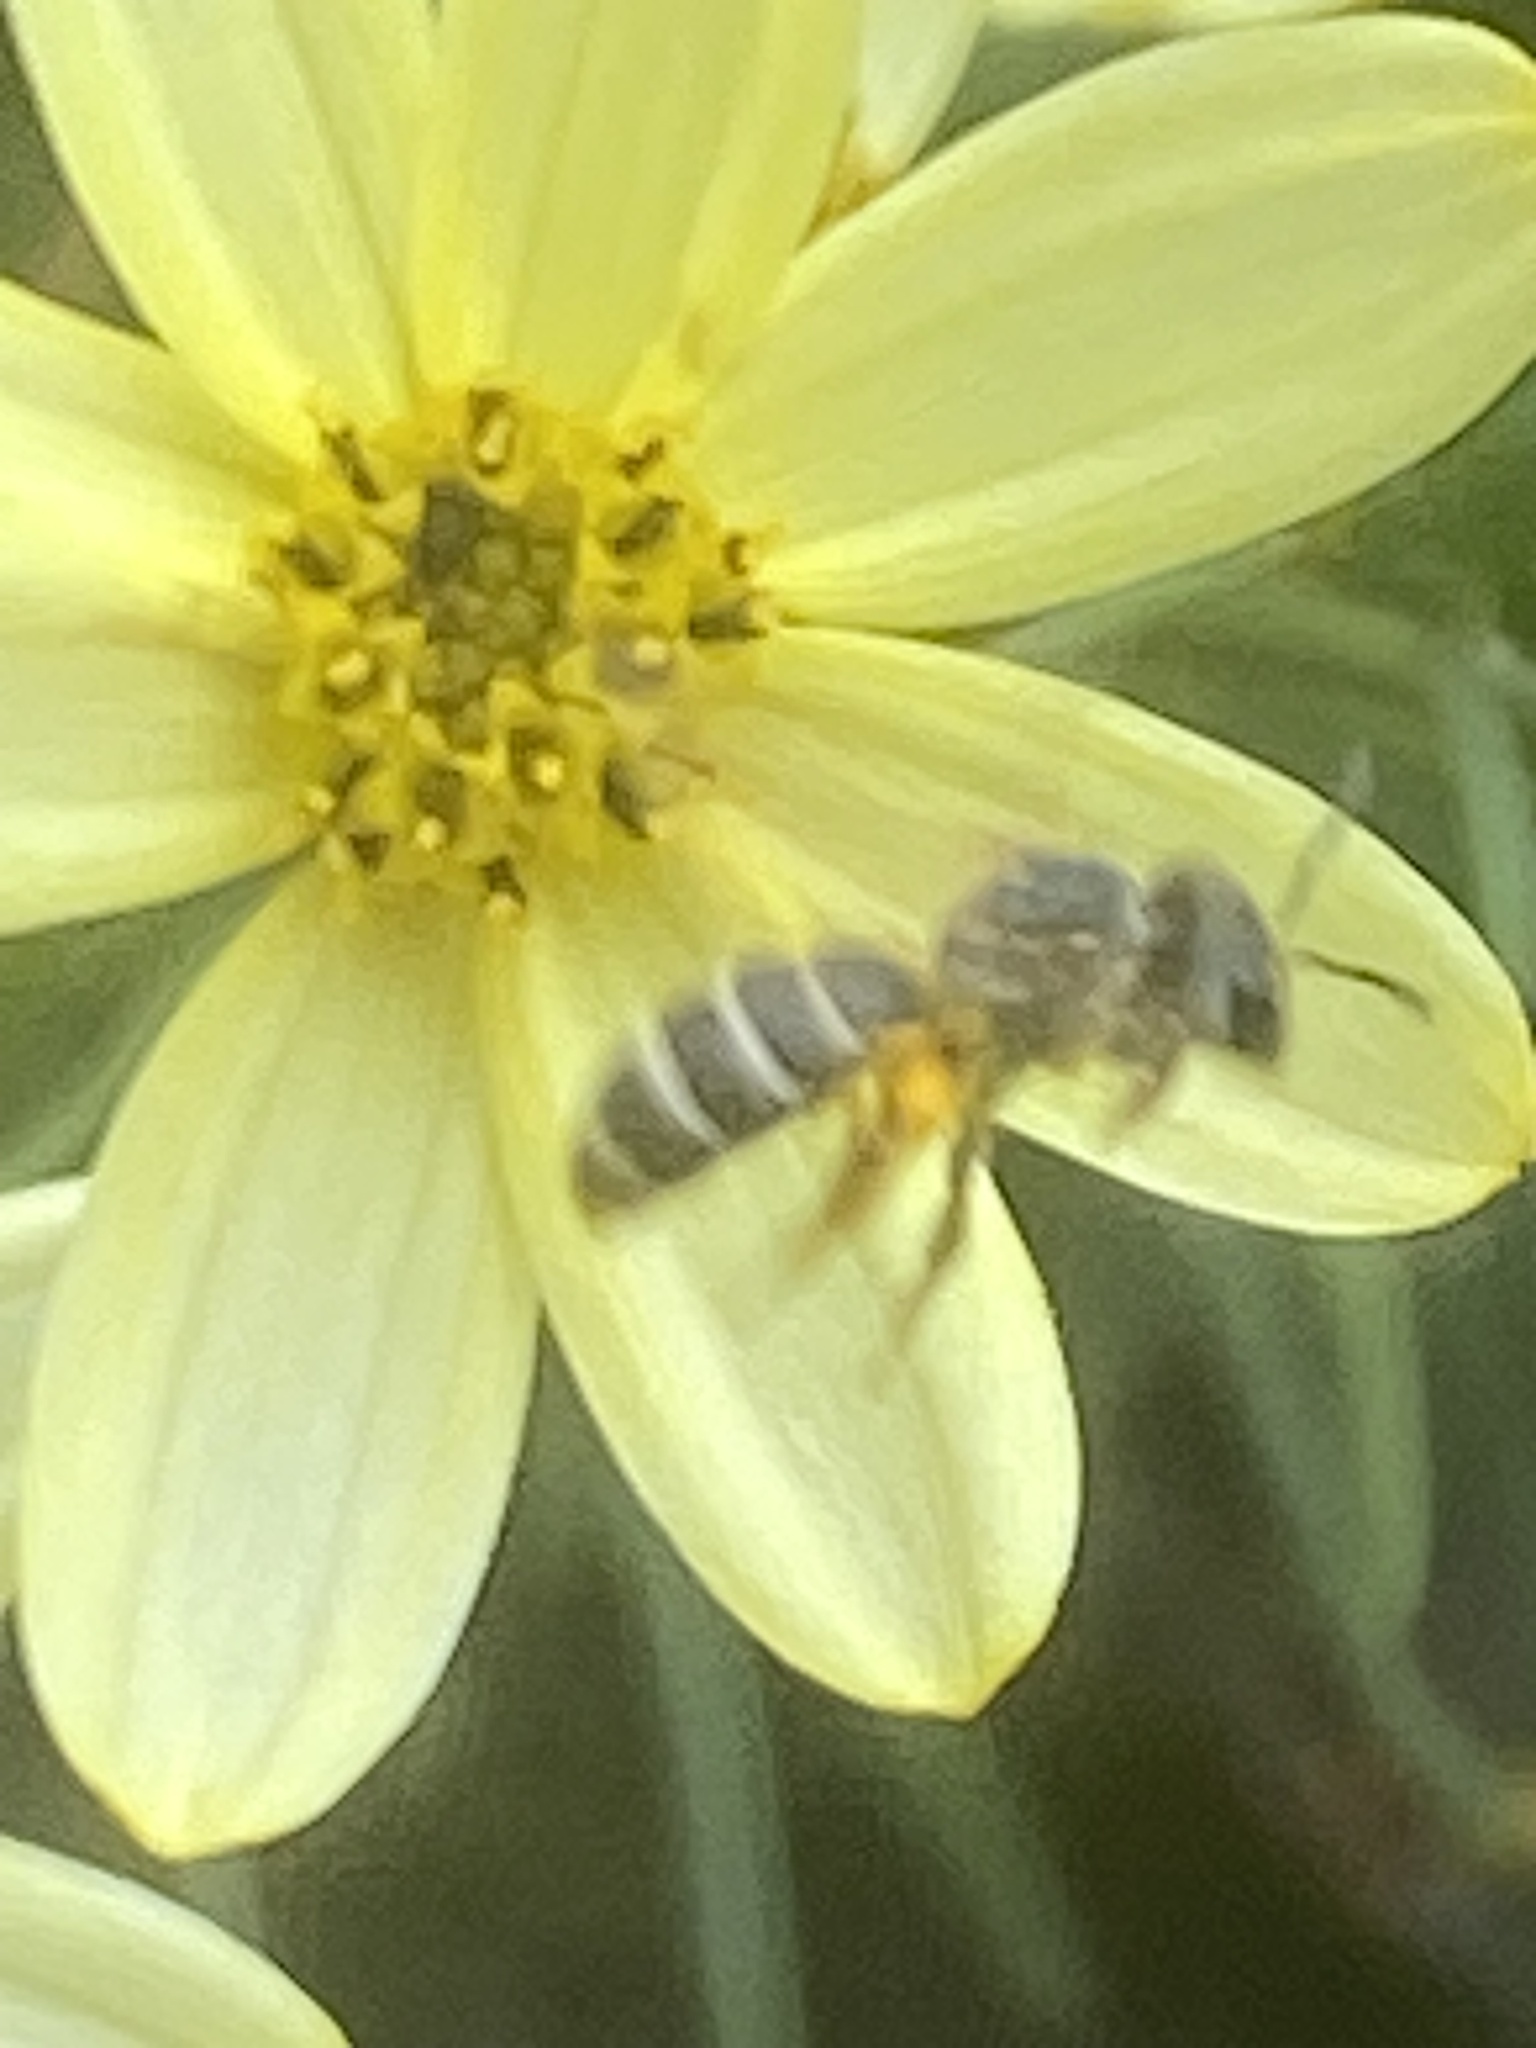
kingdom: Animalia
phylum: Arthropoda
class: Insecta
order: Hymenoptera
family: Halictidae
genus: Halictus
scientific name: Halictus ligatus
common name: Ligated furrow bee
